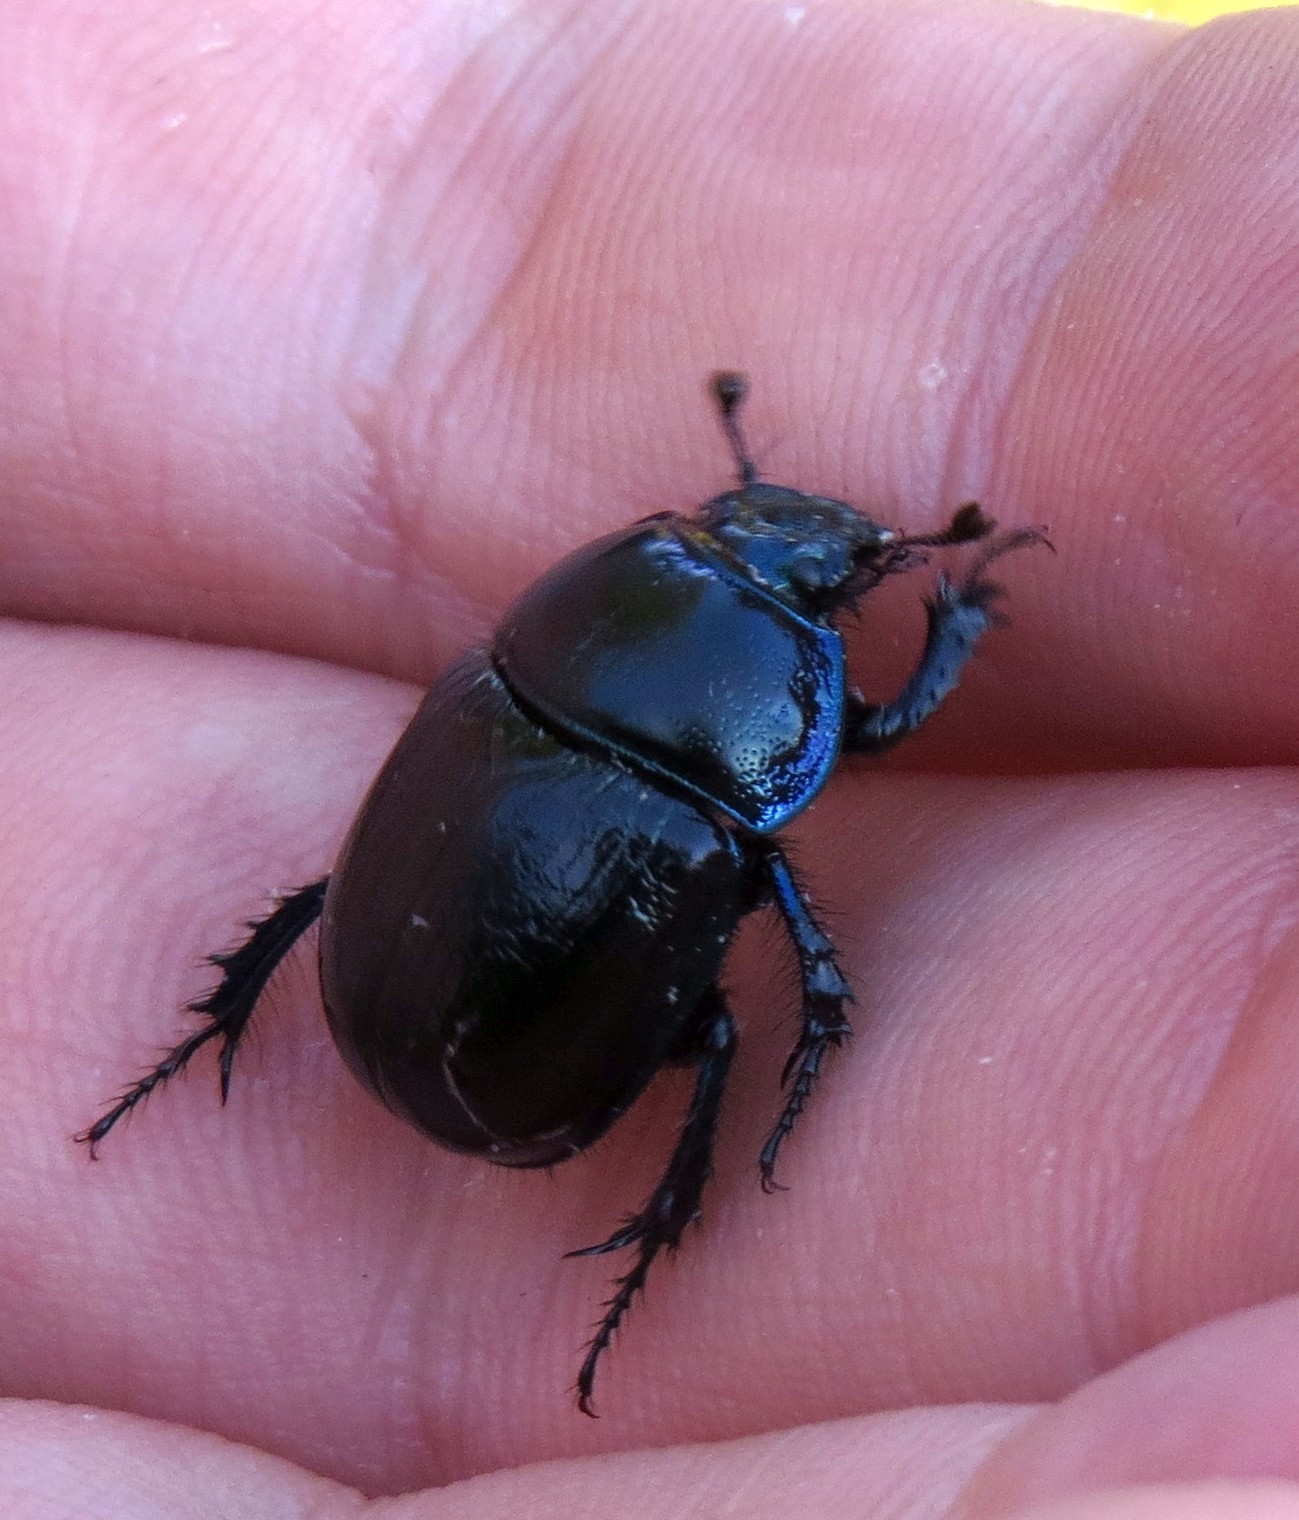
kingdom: Animalia
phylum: Arthropoda
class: Insecta
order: Coleoptera
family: Geotrupidae
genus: Anoplotrupes
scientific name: Anoplotrupes stercorosus
